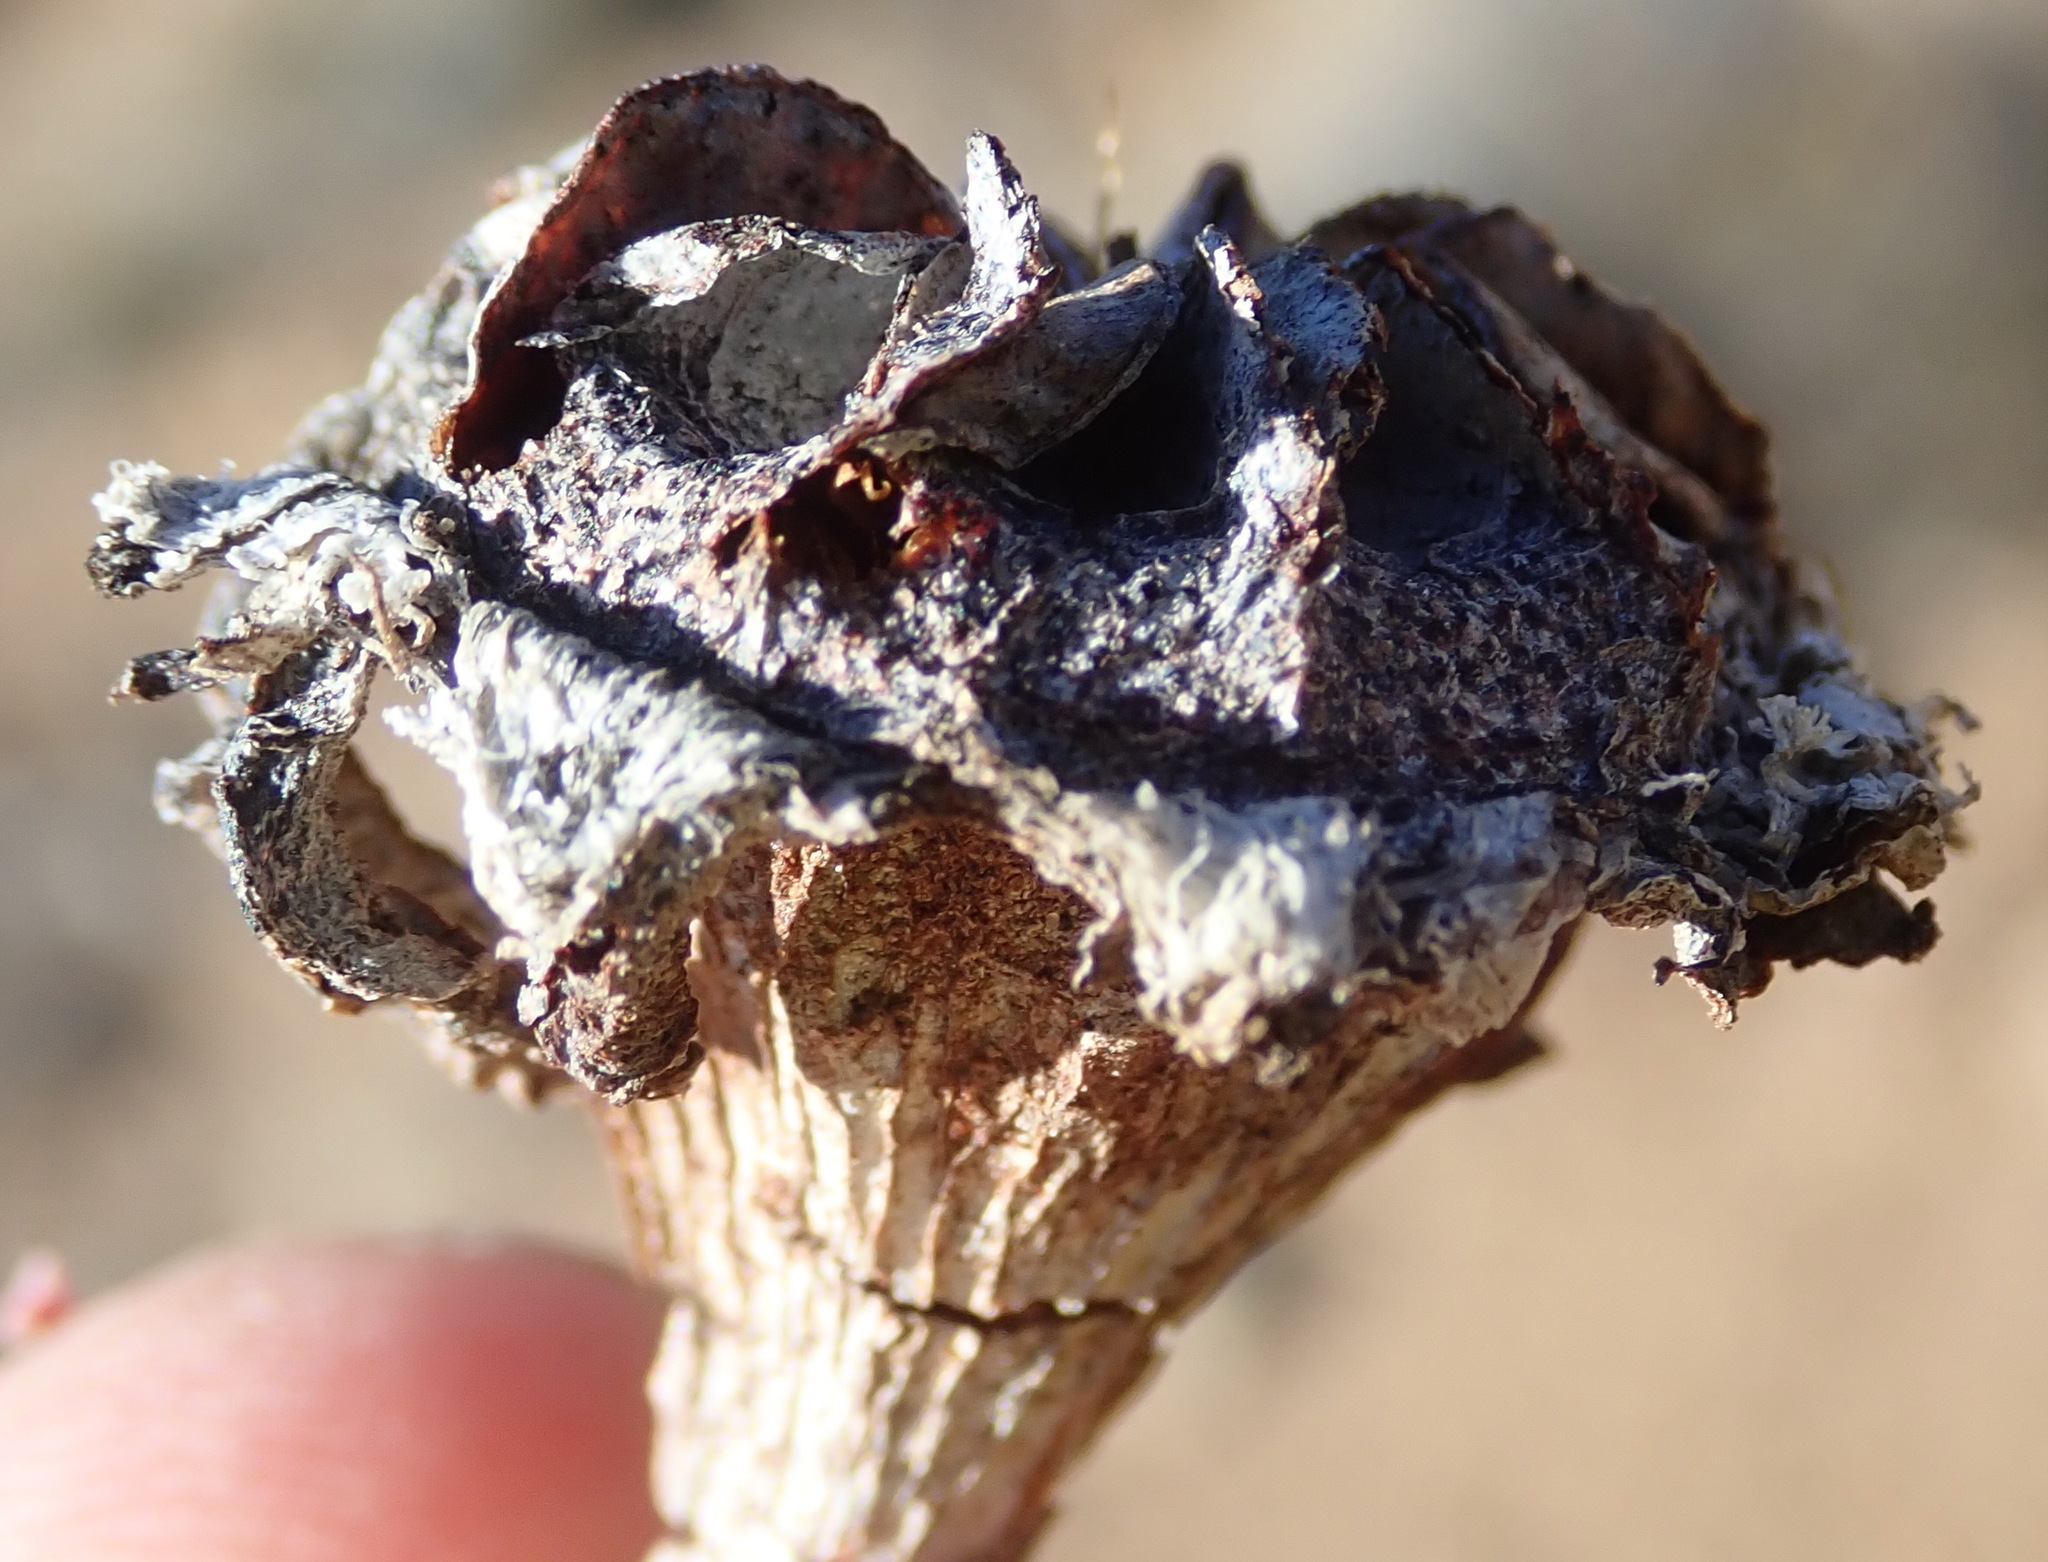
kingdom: Plantae
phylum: Tracheophyta
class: Magnoliopsida
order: Caryophyllales
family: Aizoaceae
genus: Machairophyllum
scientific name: Machairophyllum bijlii
